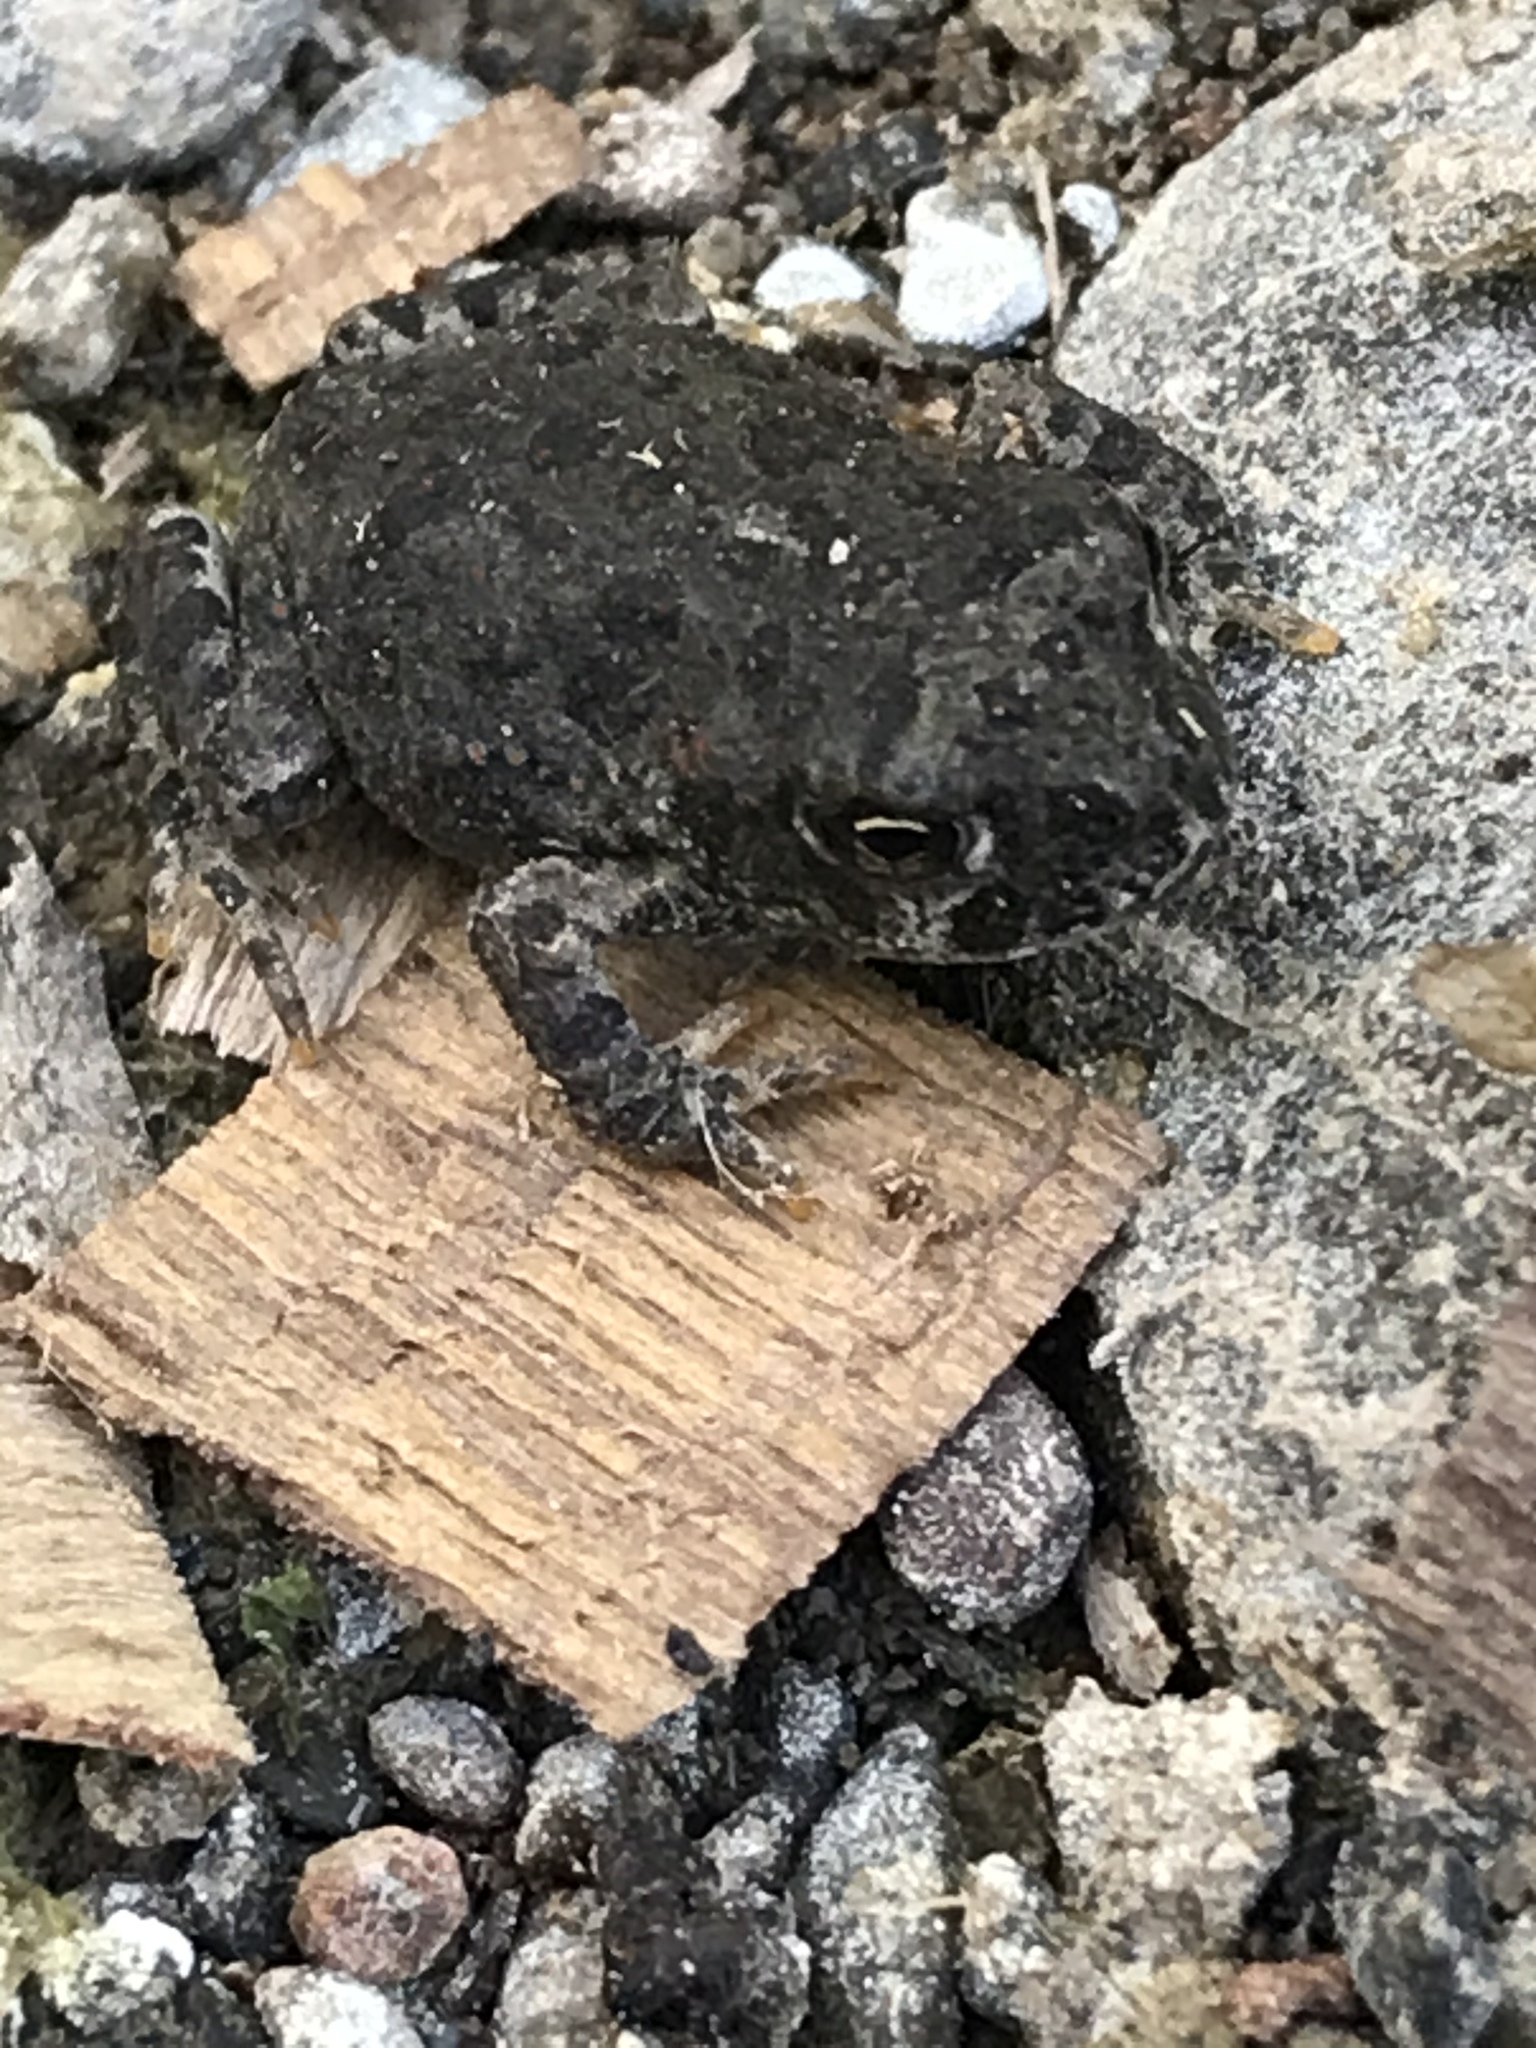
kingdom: Animalia
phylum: Chordata
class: Amphibia
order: Anura
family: Bufonidae
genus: Anaxyrus
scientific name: Anaxyrus boreas
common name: Western toad
